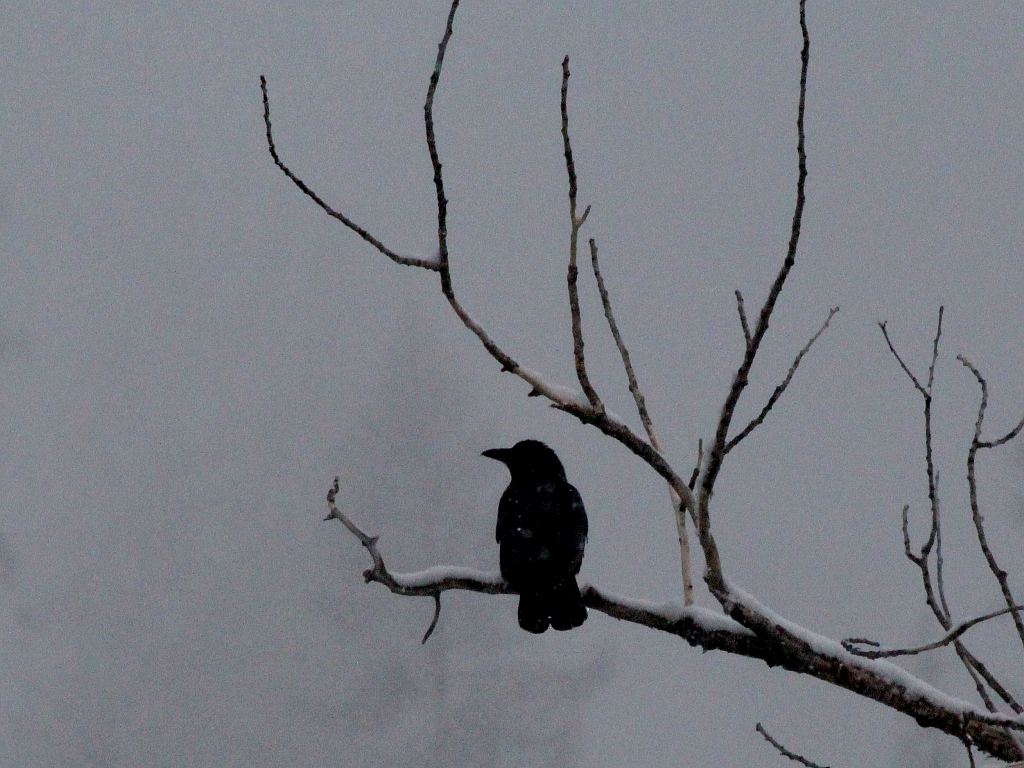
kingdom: Animalia
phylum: Chordata
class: Aves
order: Passeriformes
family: Corvidae
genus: Corvus
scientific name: Corvus corone
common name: Carrion crow
